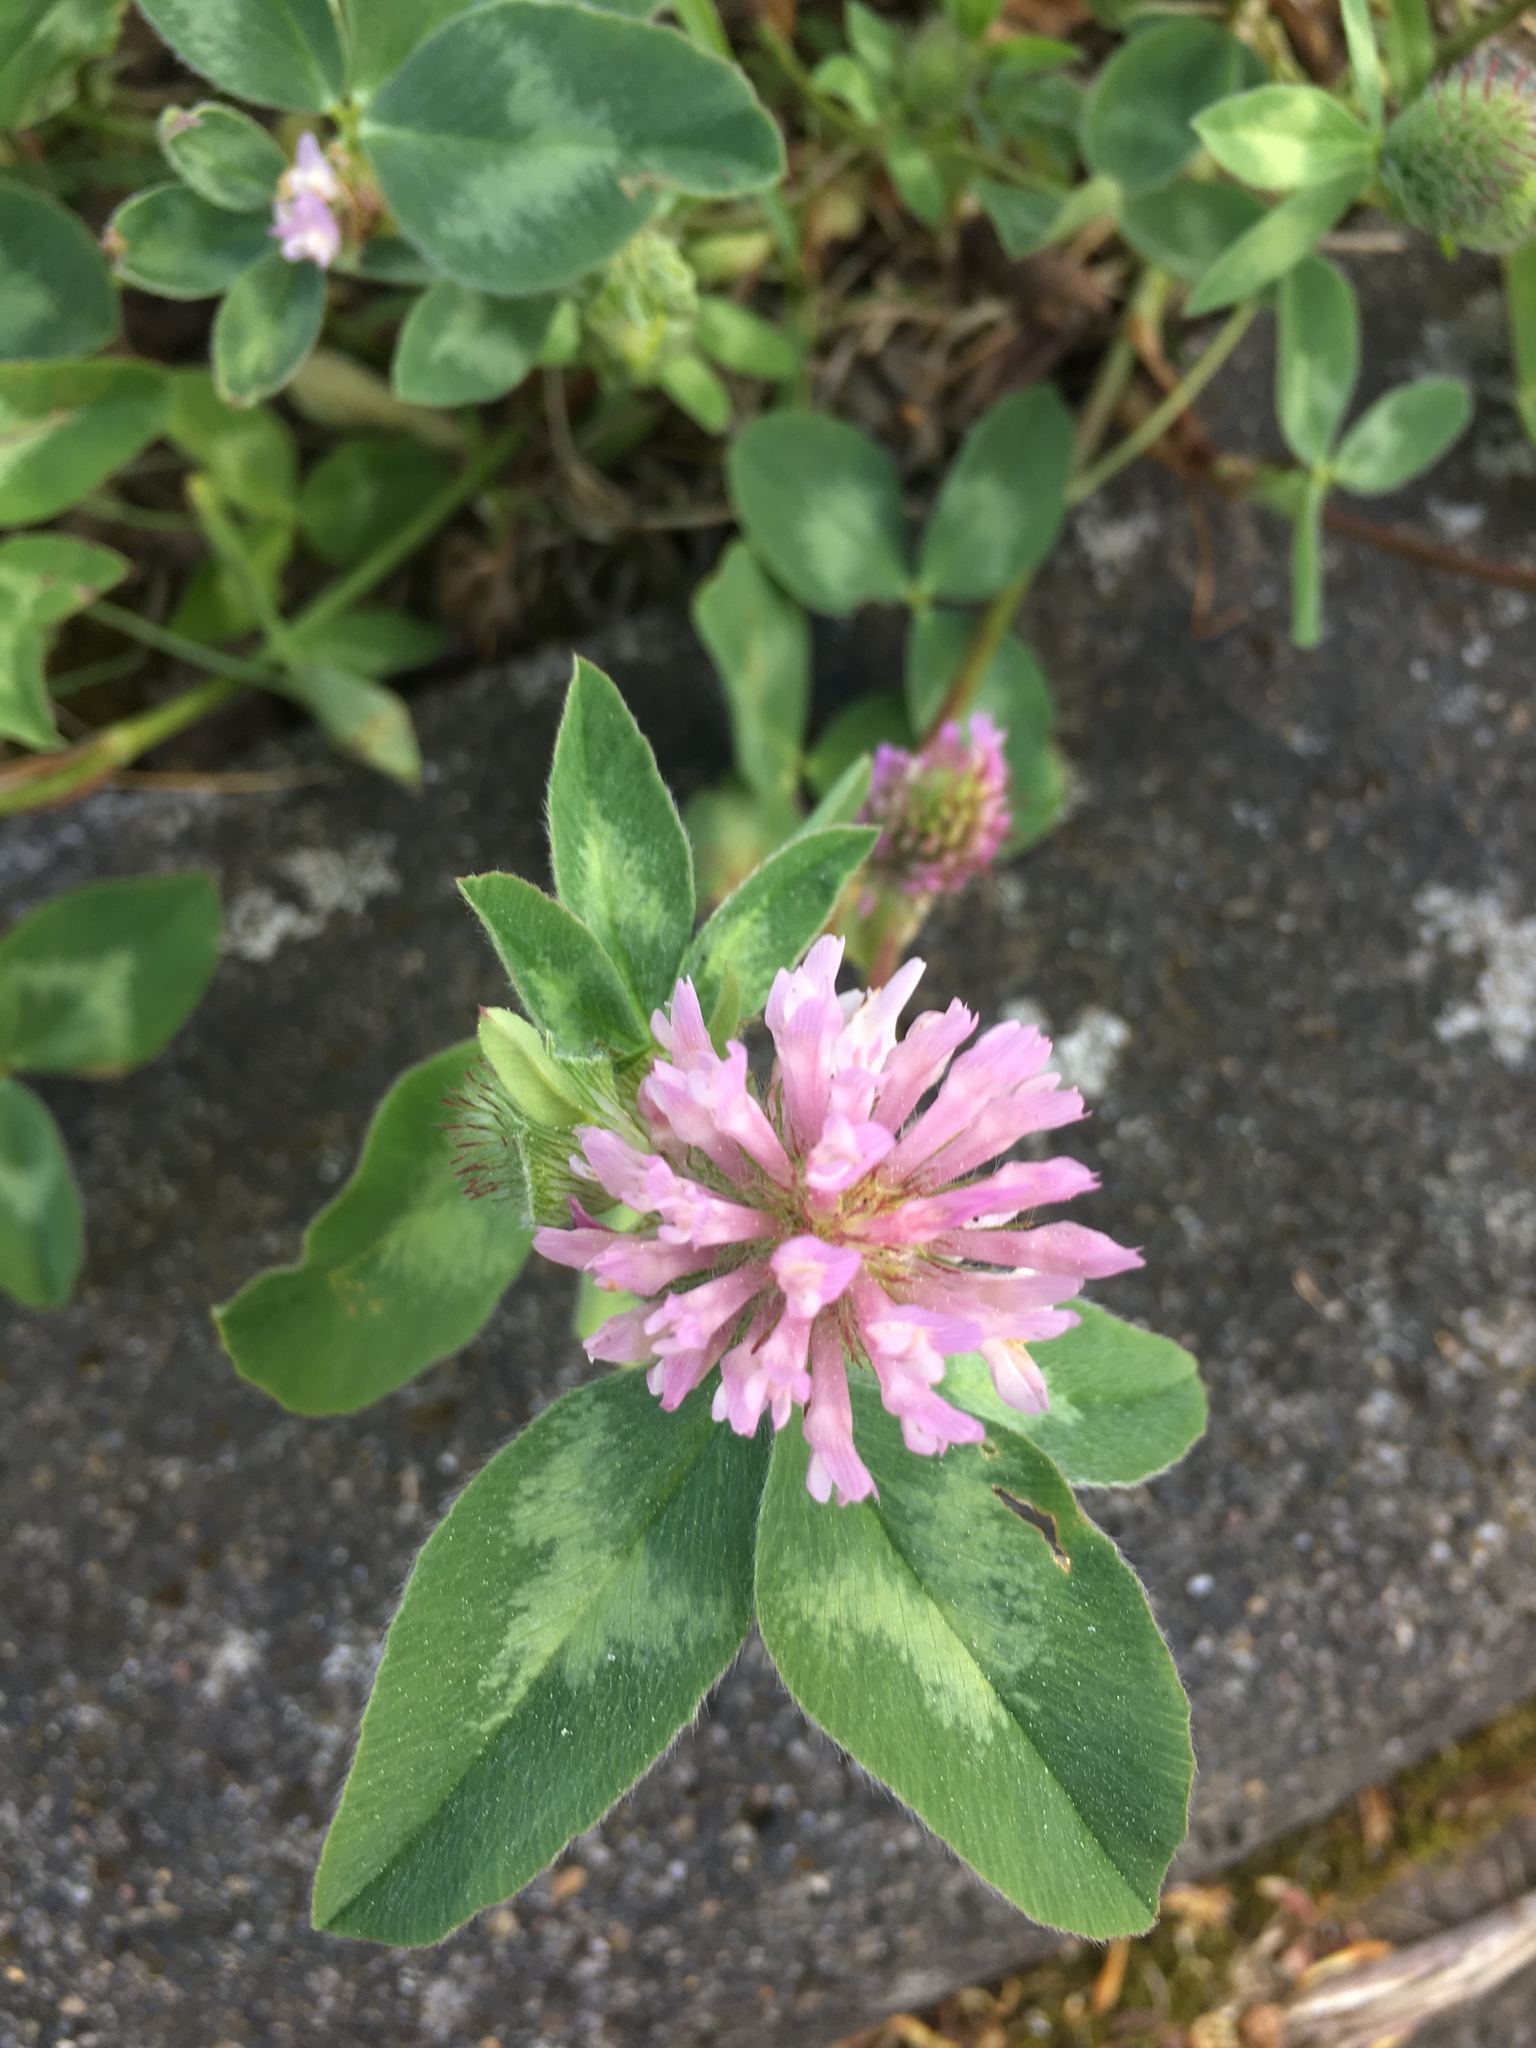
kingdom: Plantae
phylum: Tracheophyta
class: Magnoliopsida
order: Fabales
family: Fabaceae
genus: Trifolium
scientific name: Trifolium pratense
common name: Red clover
